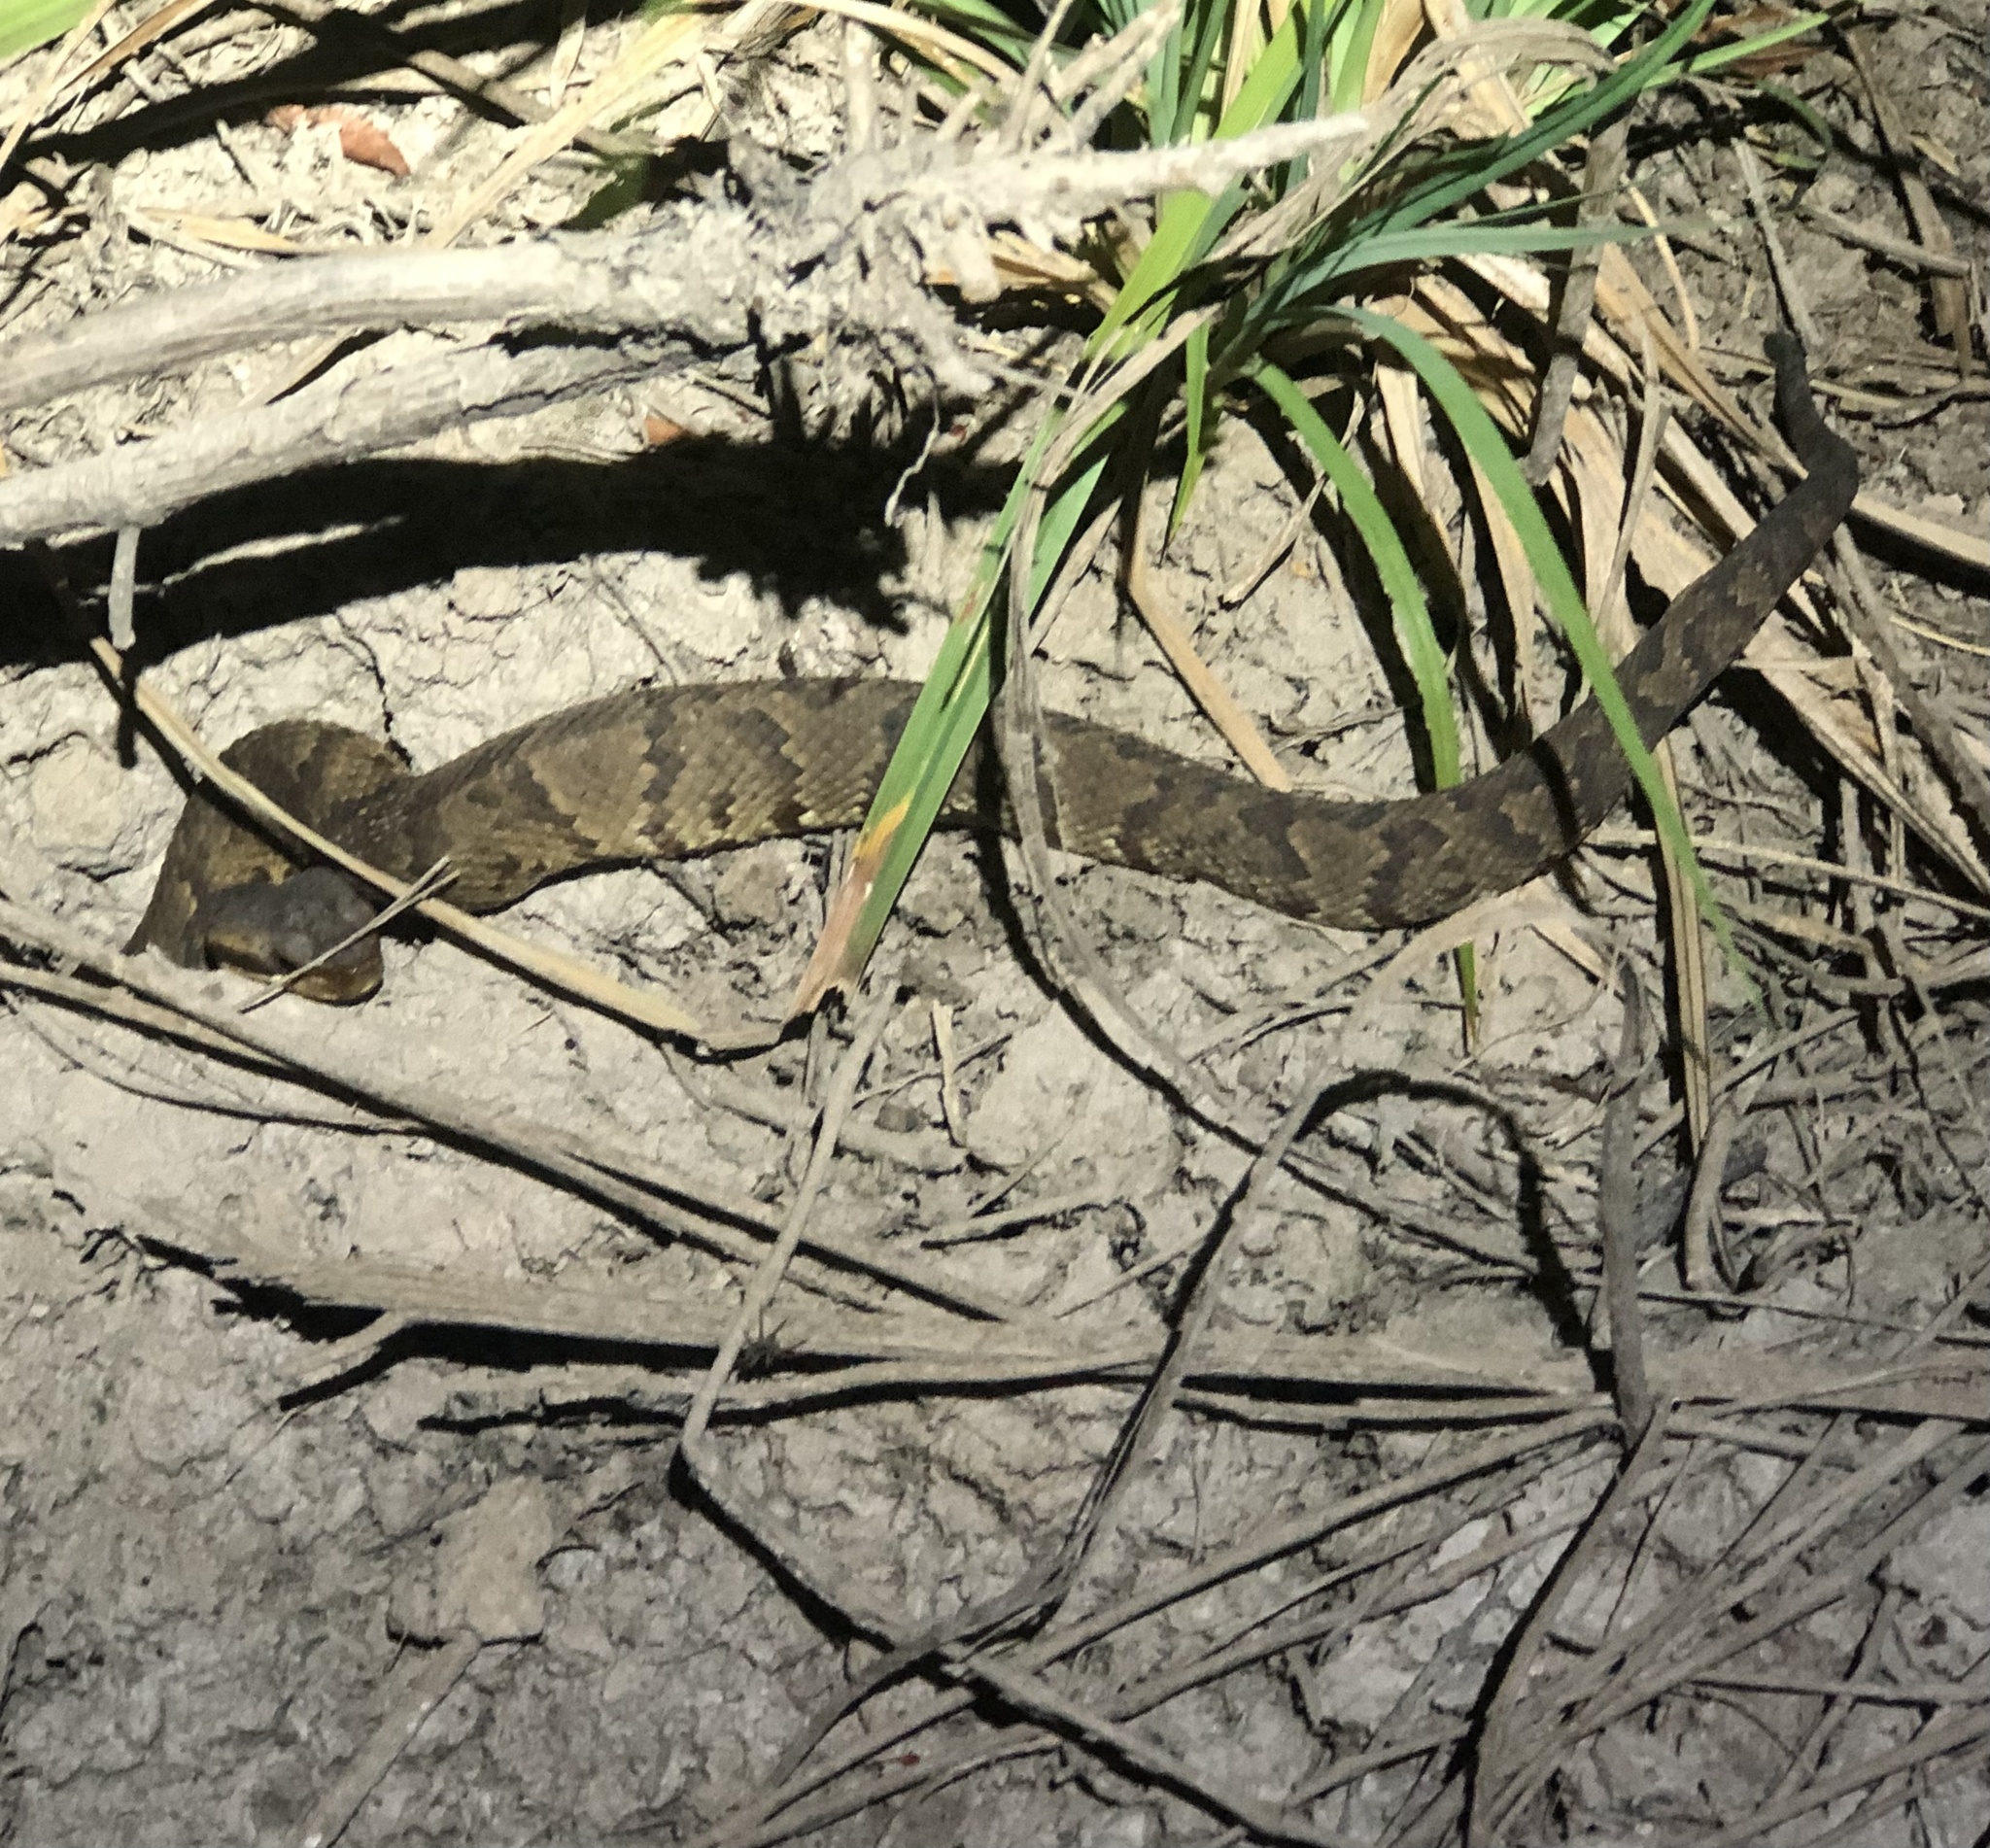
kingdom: Animalia
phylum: Chordata
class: Squamata
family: Viperidae
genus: Agkistrodon
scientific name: Agkistrodon piscivorus
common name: Cottonmouth
